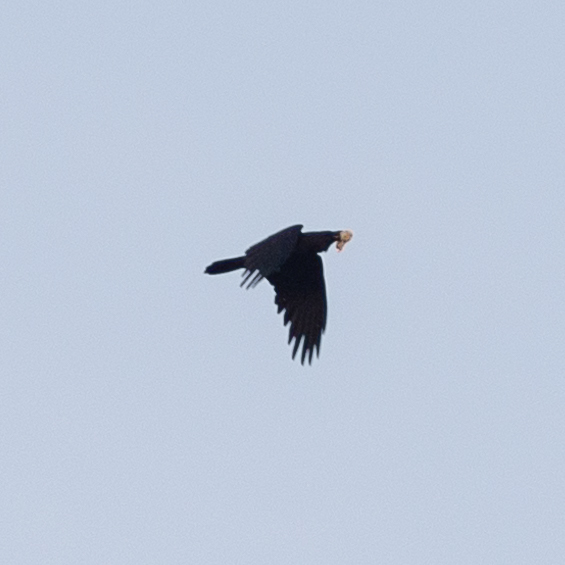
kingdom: Animalia
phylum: Chordata
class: Aves
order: Passeriformes
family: Corvidae
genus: Corvus
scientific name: Corvus corax
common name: Common raven
